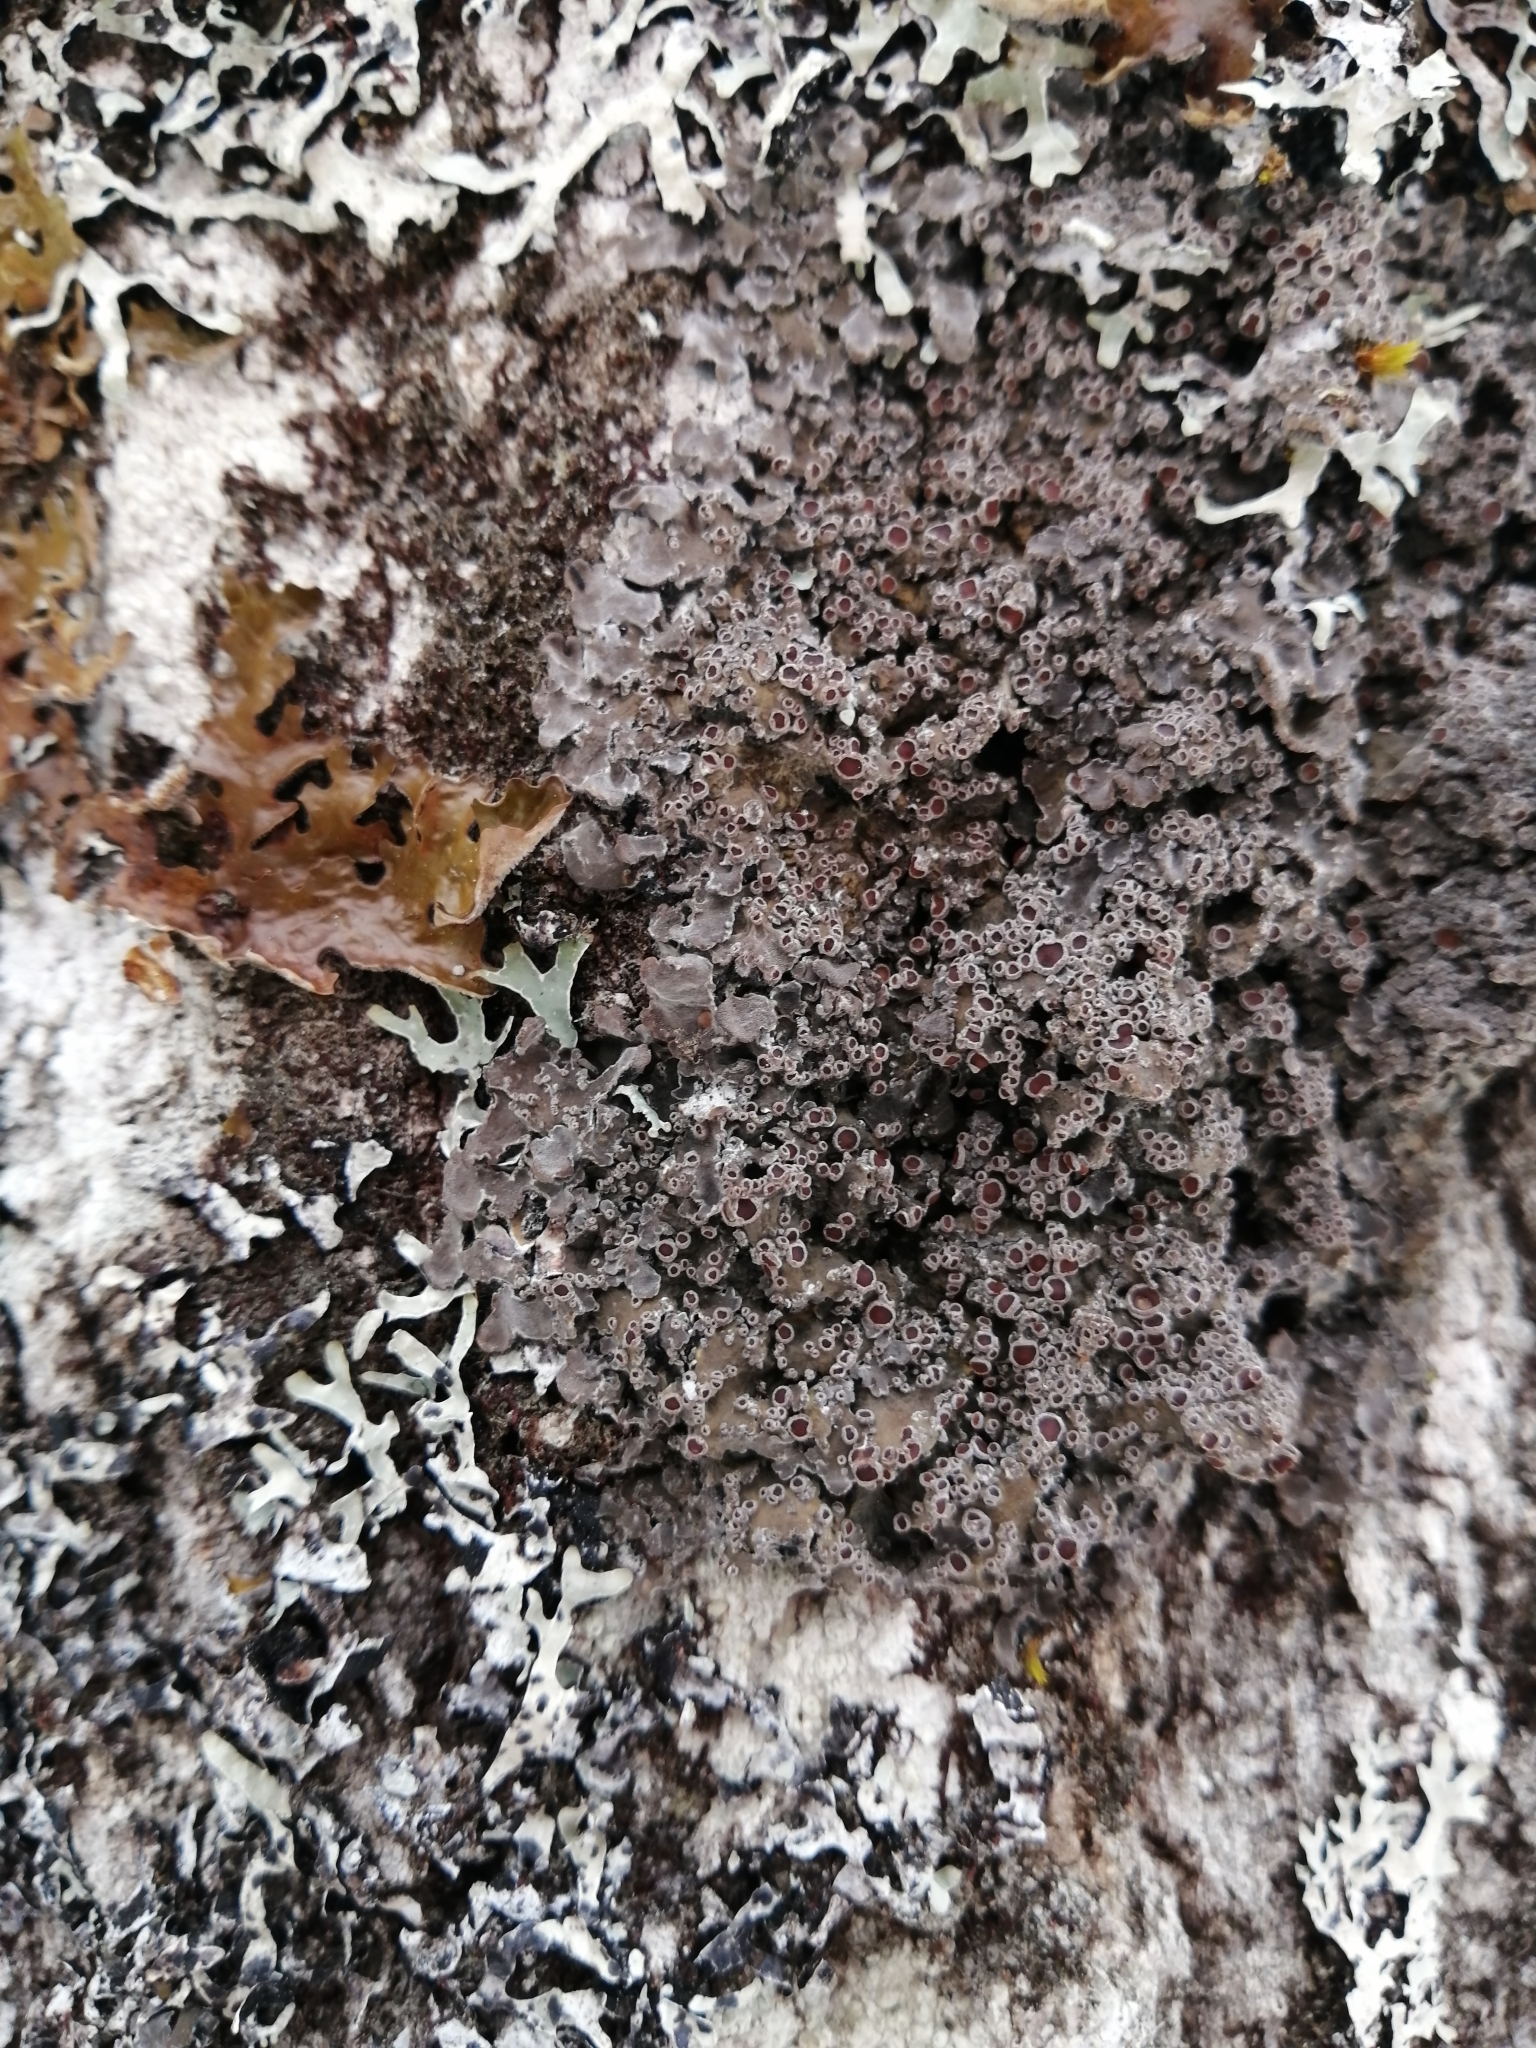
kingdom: Fungi
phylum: Ascomycota
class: Lecanoromycetes
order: Peltigerales
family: Pannariaceae
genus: Pannaria
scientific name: Pannaria lurida
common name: Wrinkled shingle lichen
